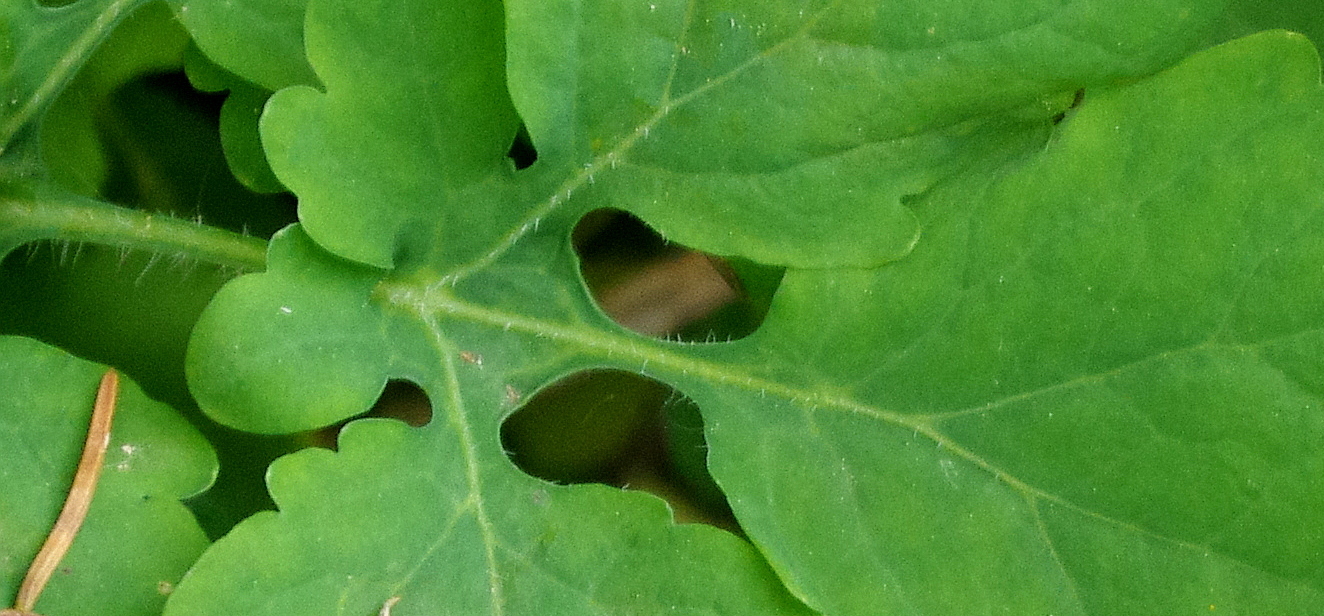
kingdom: Plantae
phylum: Tracheophyta
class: Magnoliopsida
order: Ranunculales
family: Papaveraceae
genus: Chelidonium
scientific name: Chelidonium majus
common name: Greater celandine
